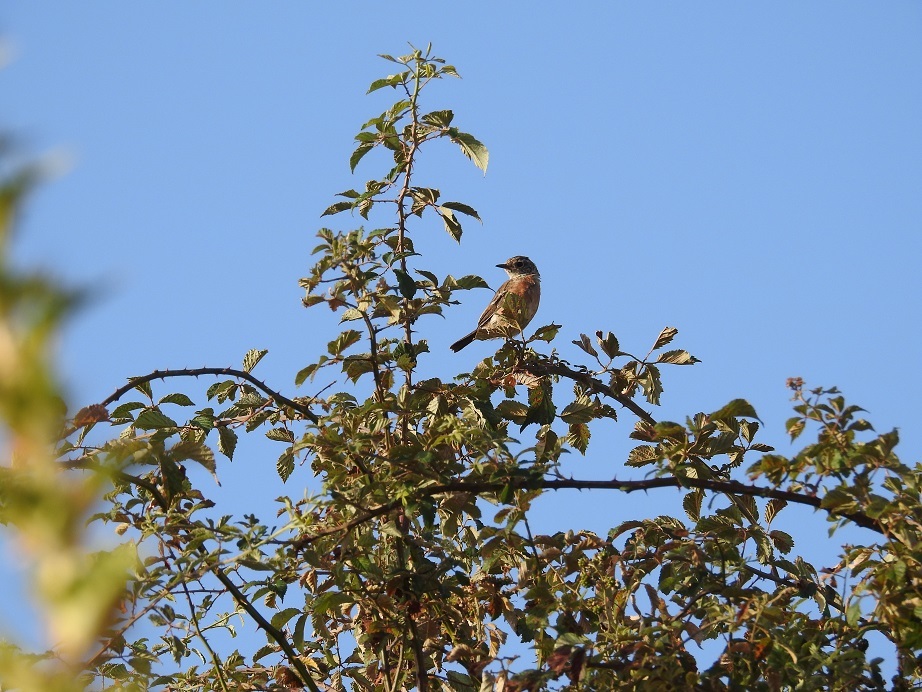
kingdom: Animalia
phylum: Chordata
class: Aves
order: Passeriformes
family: Muscicapidae
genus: Saxicola
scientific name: Saxicola rubicola
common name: European stonechat
